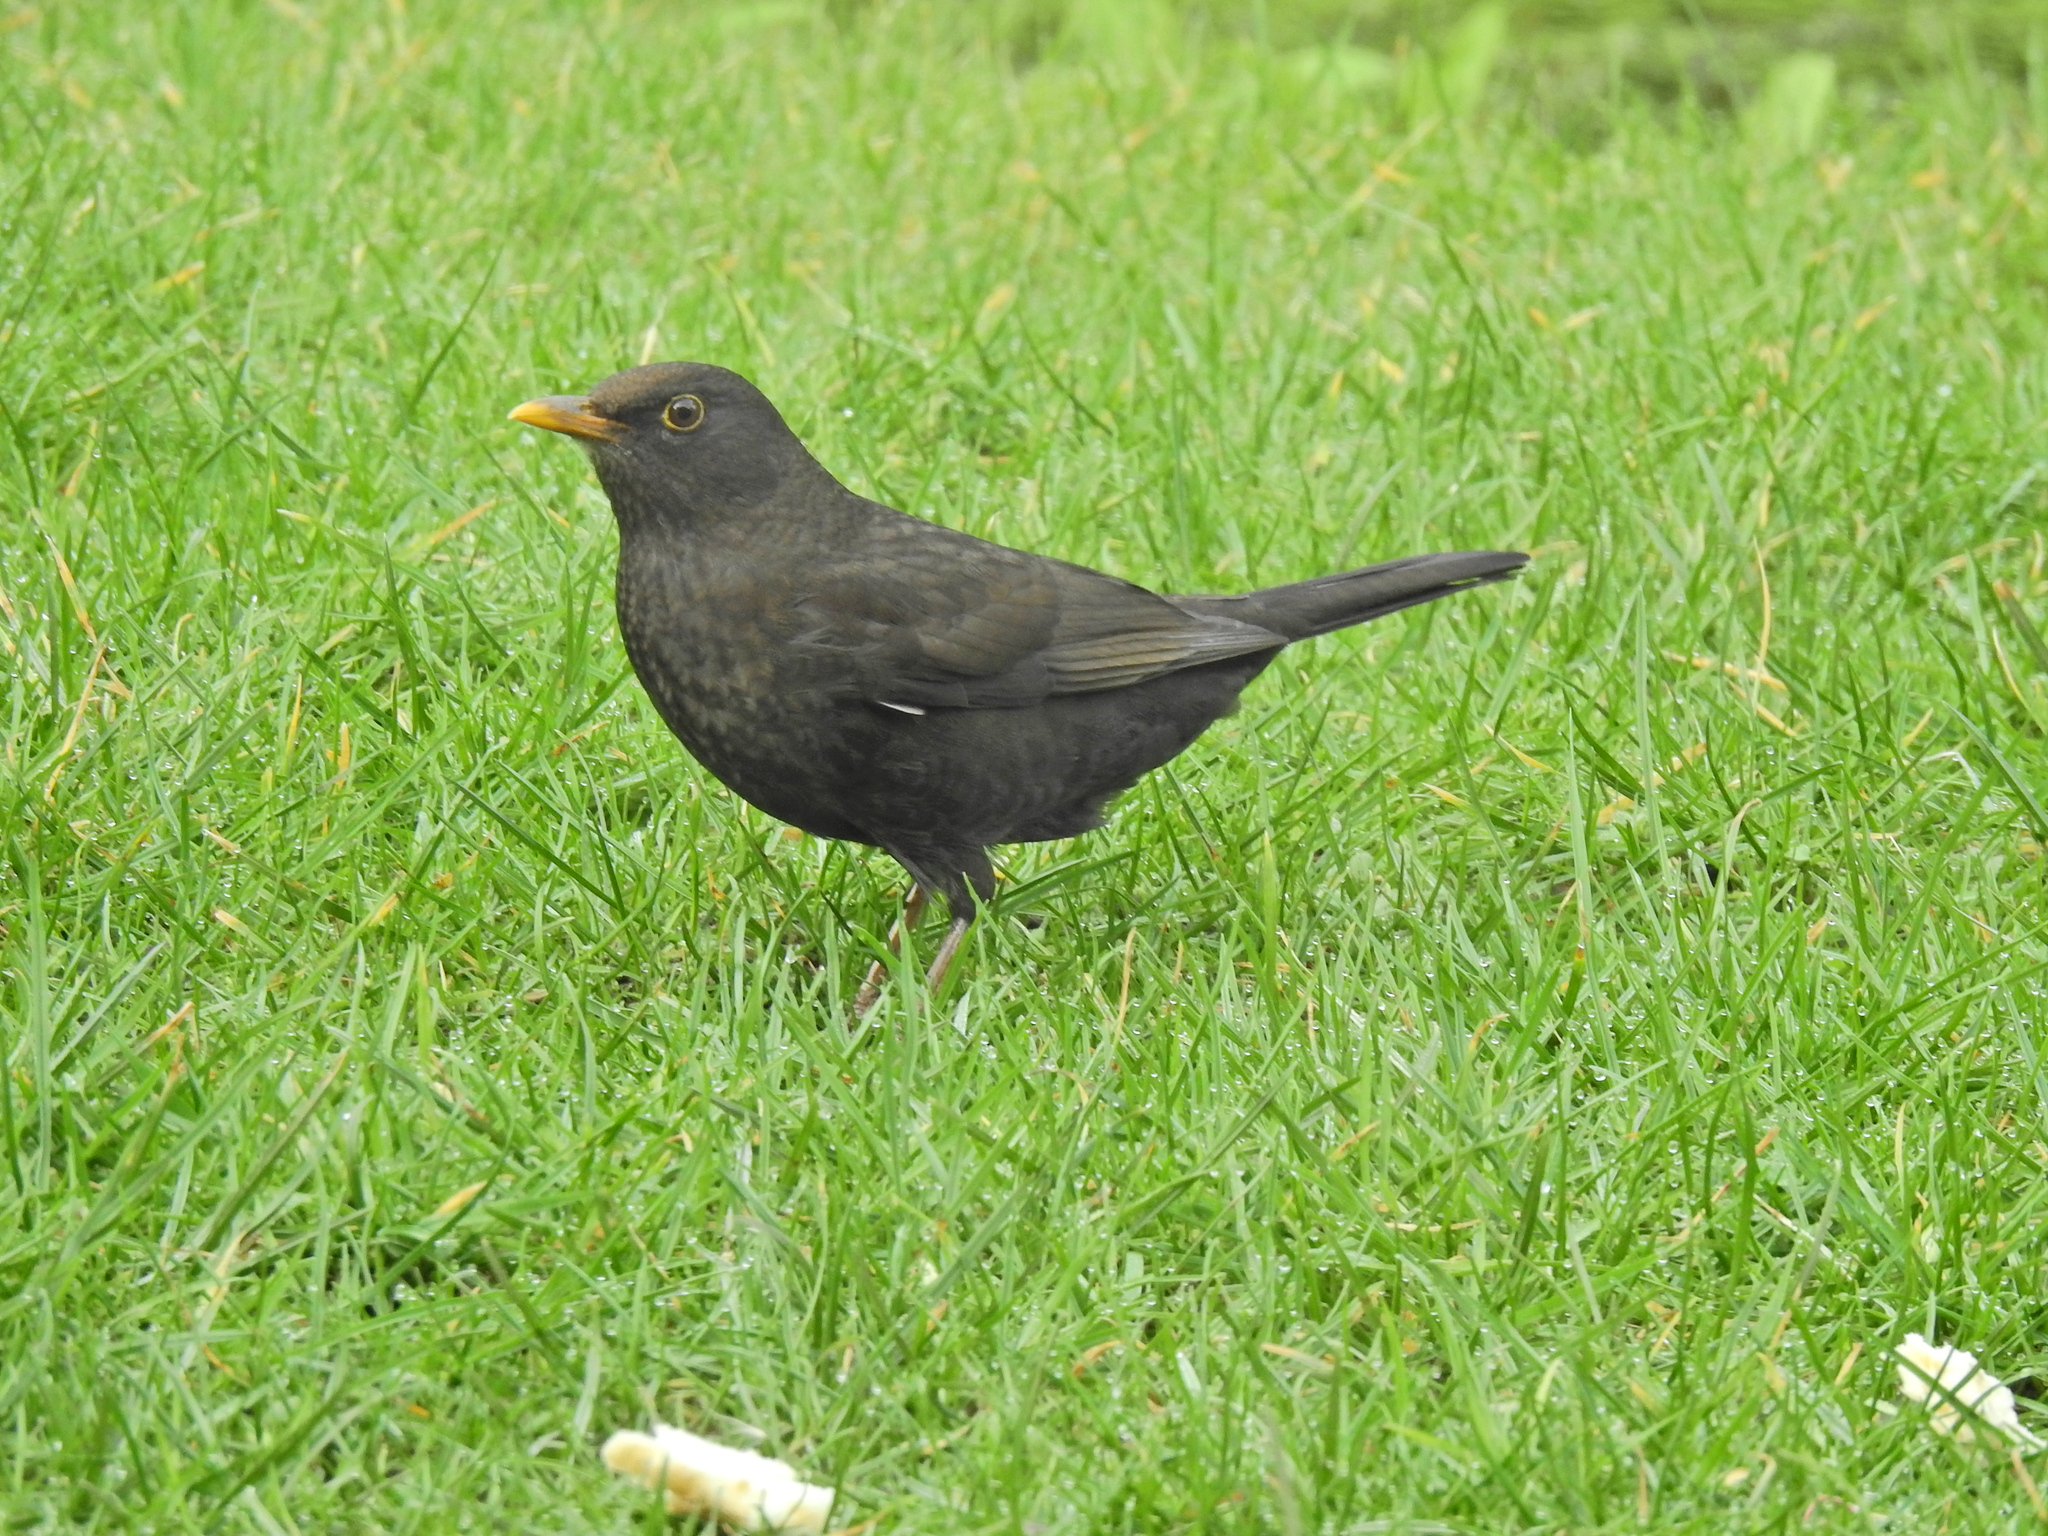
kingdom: Animalia
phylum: Chordata
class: Aves
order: Passeriformes
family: Turdidae
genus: Turdus
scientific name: Turdus merula
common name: Common blackbird
